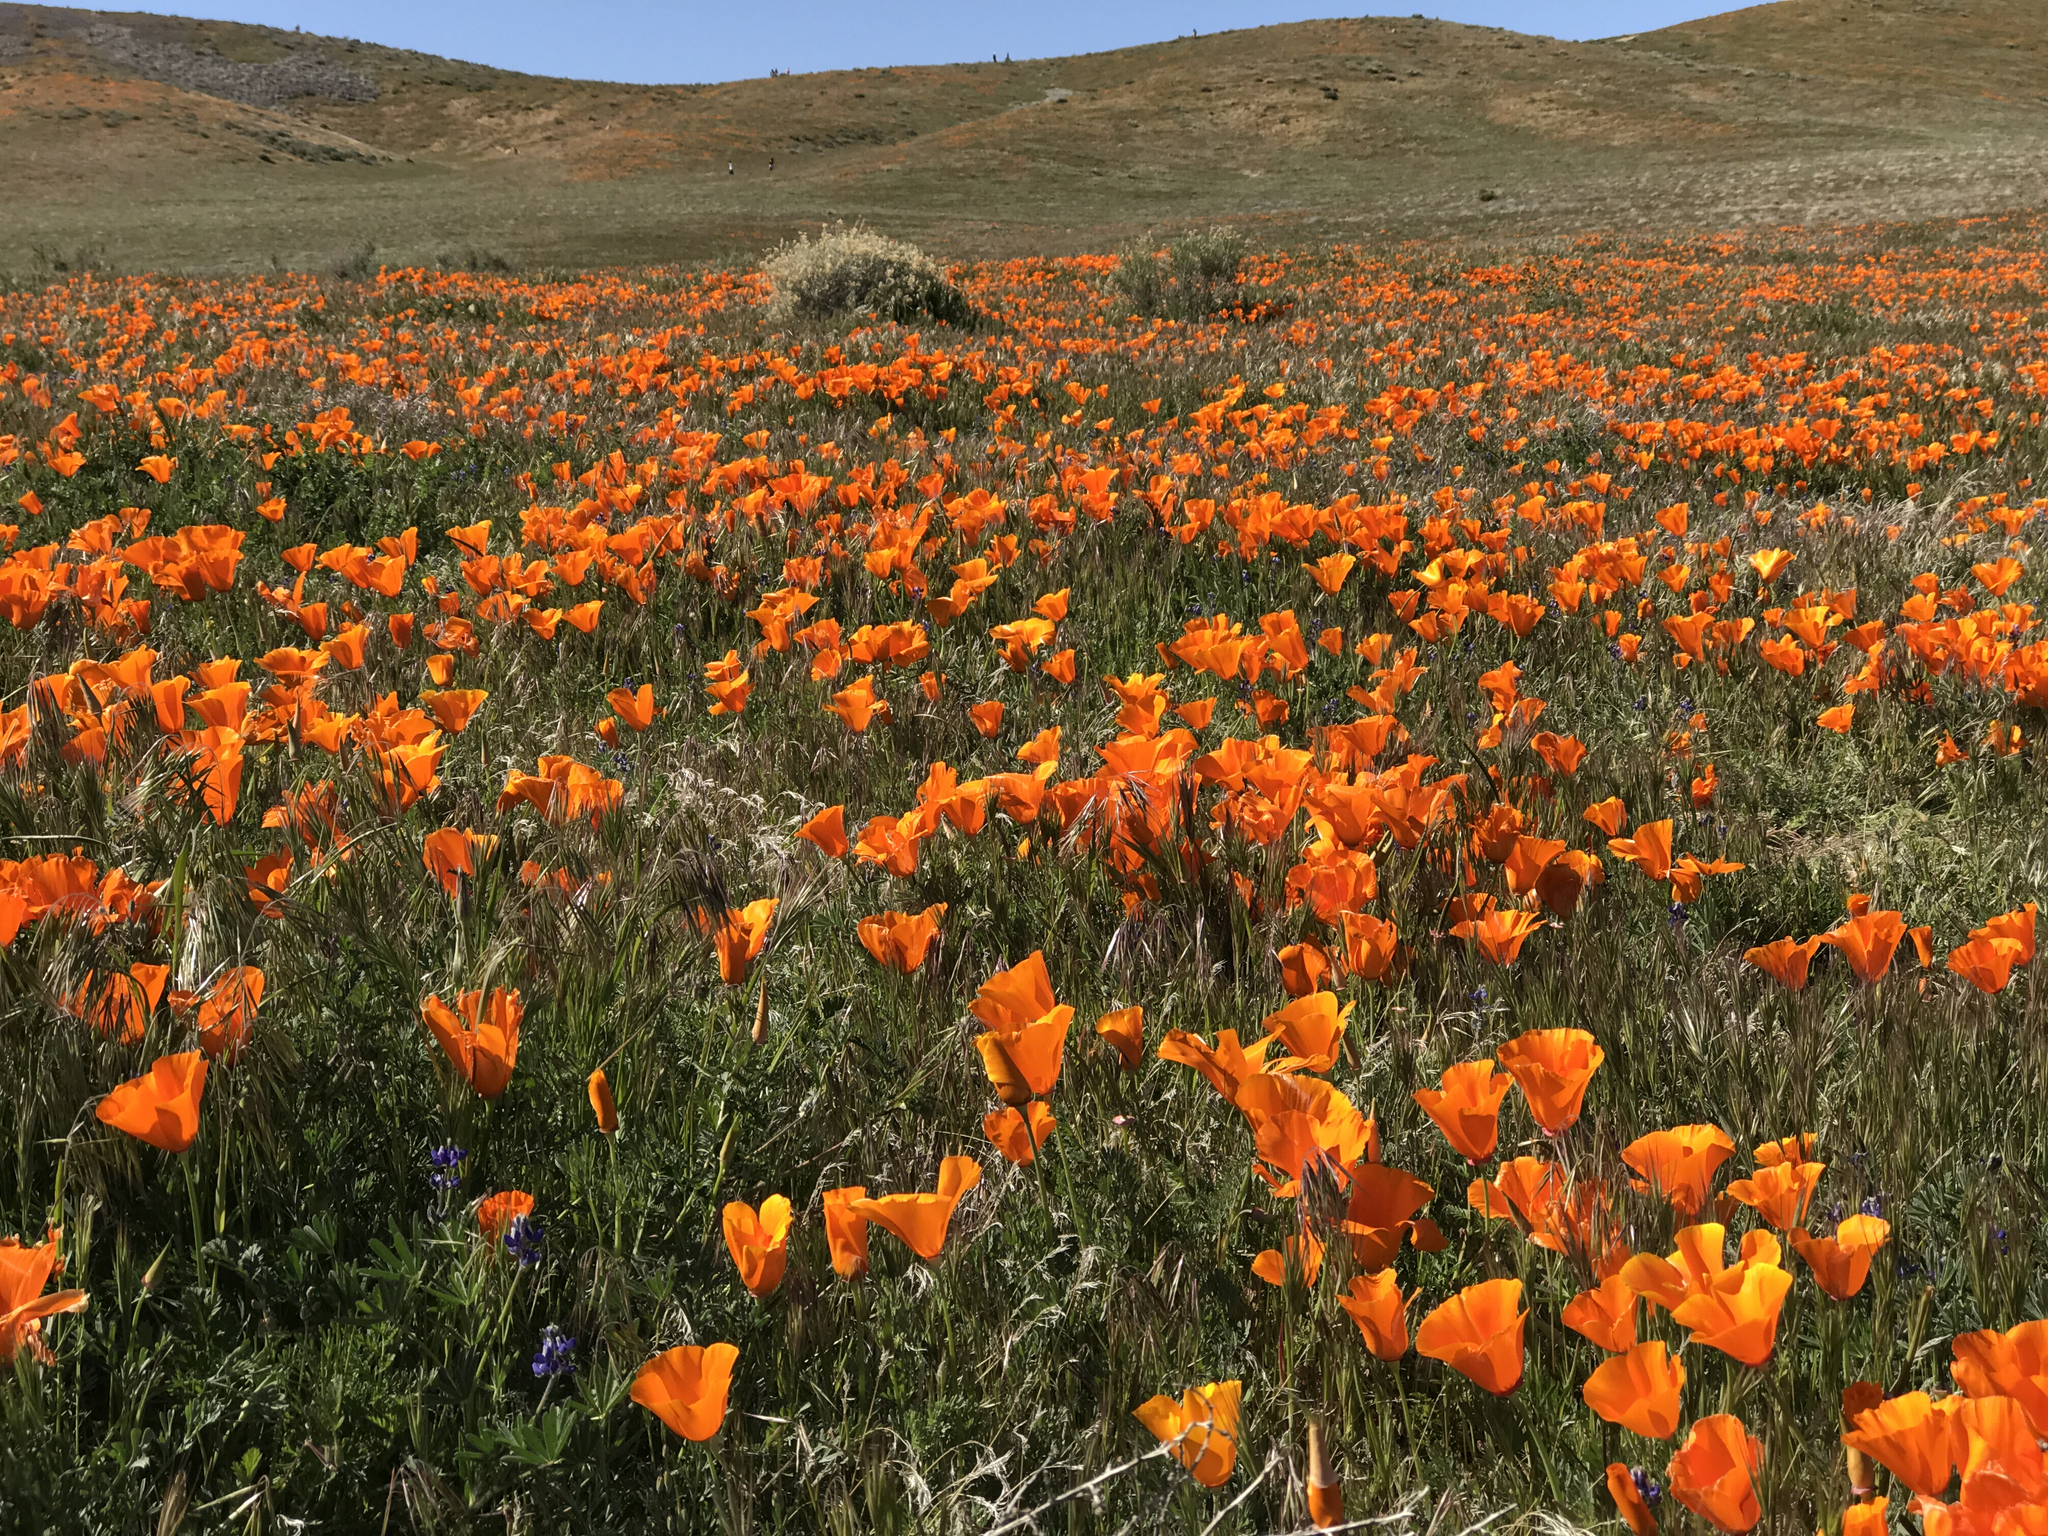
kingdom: Plantae
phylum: Tracheophyta
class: Magnoliopsida
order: Ranunculales
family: Papaveraceae
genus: Eschscholzia
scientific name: Eschscholzia californica
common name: California poppy
